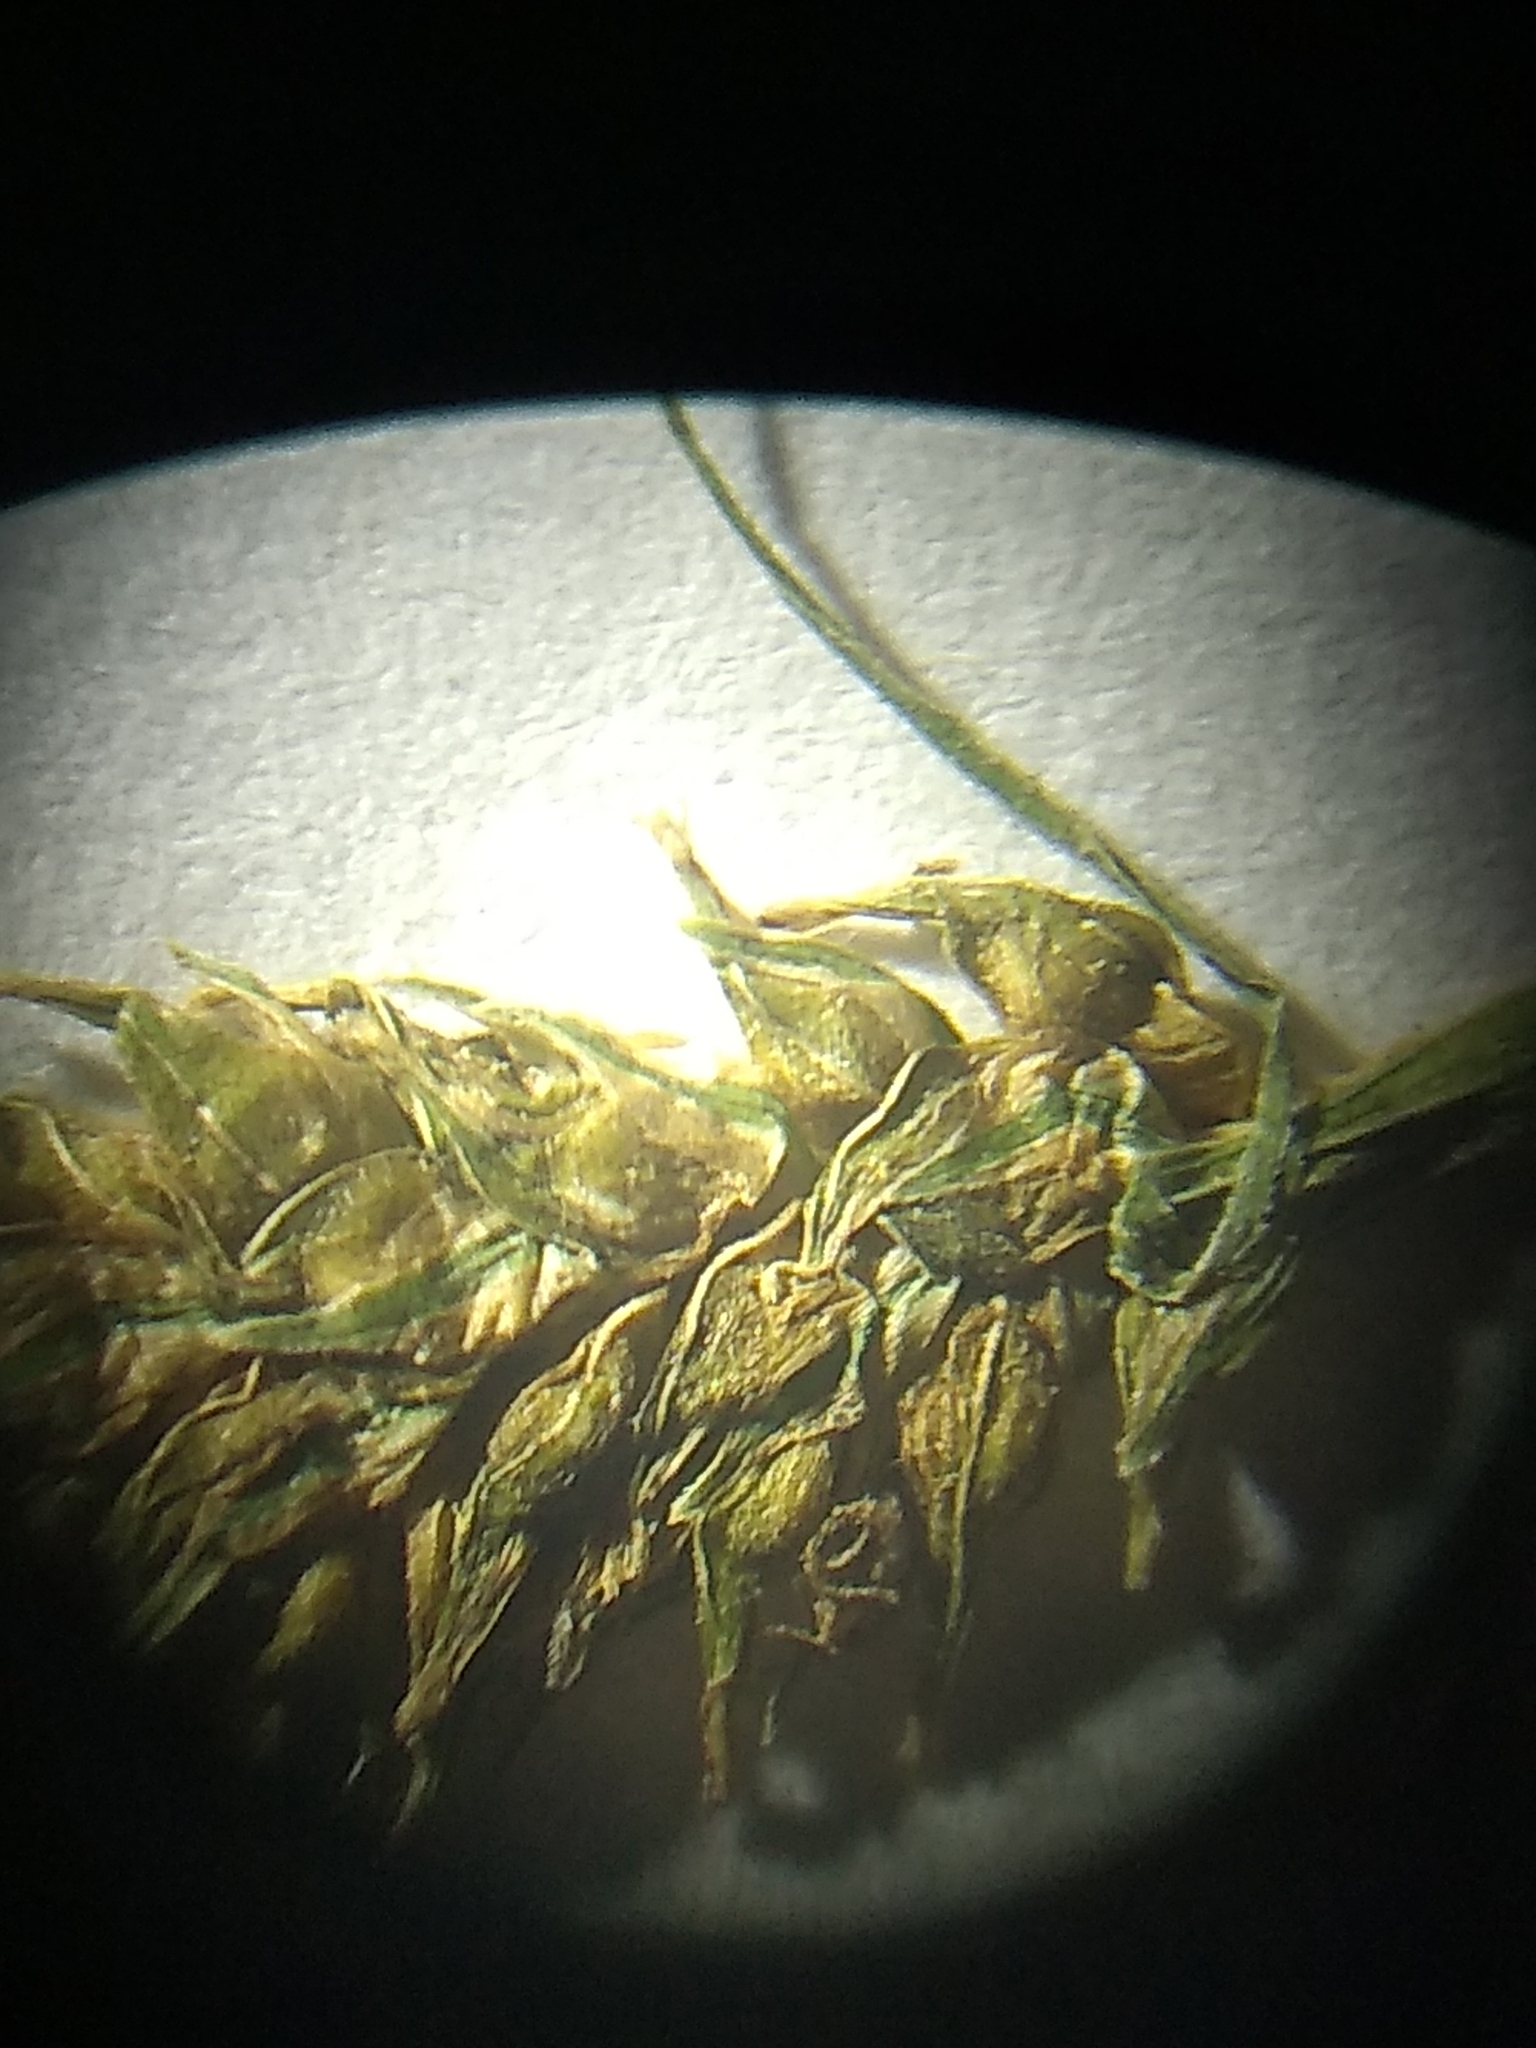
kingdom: Plantae
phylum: Tracheophyta
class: Liliopsida
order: Poales
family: Cyperaceae
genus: Carex
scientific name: Carex scabrata
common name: Eastern rough sedge
